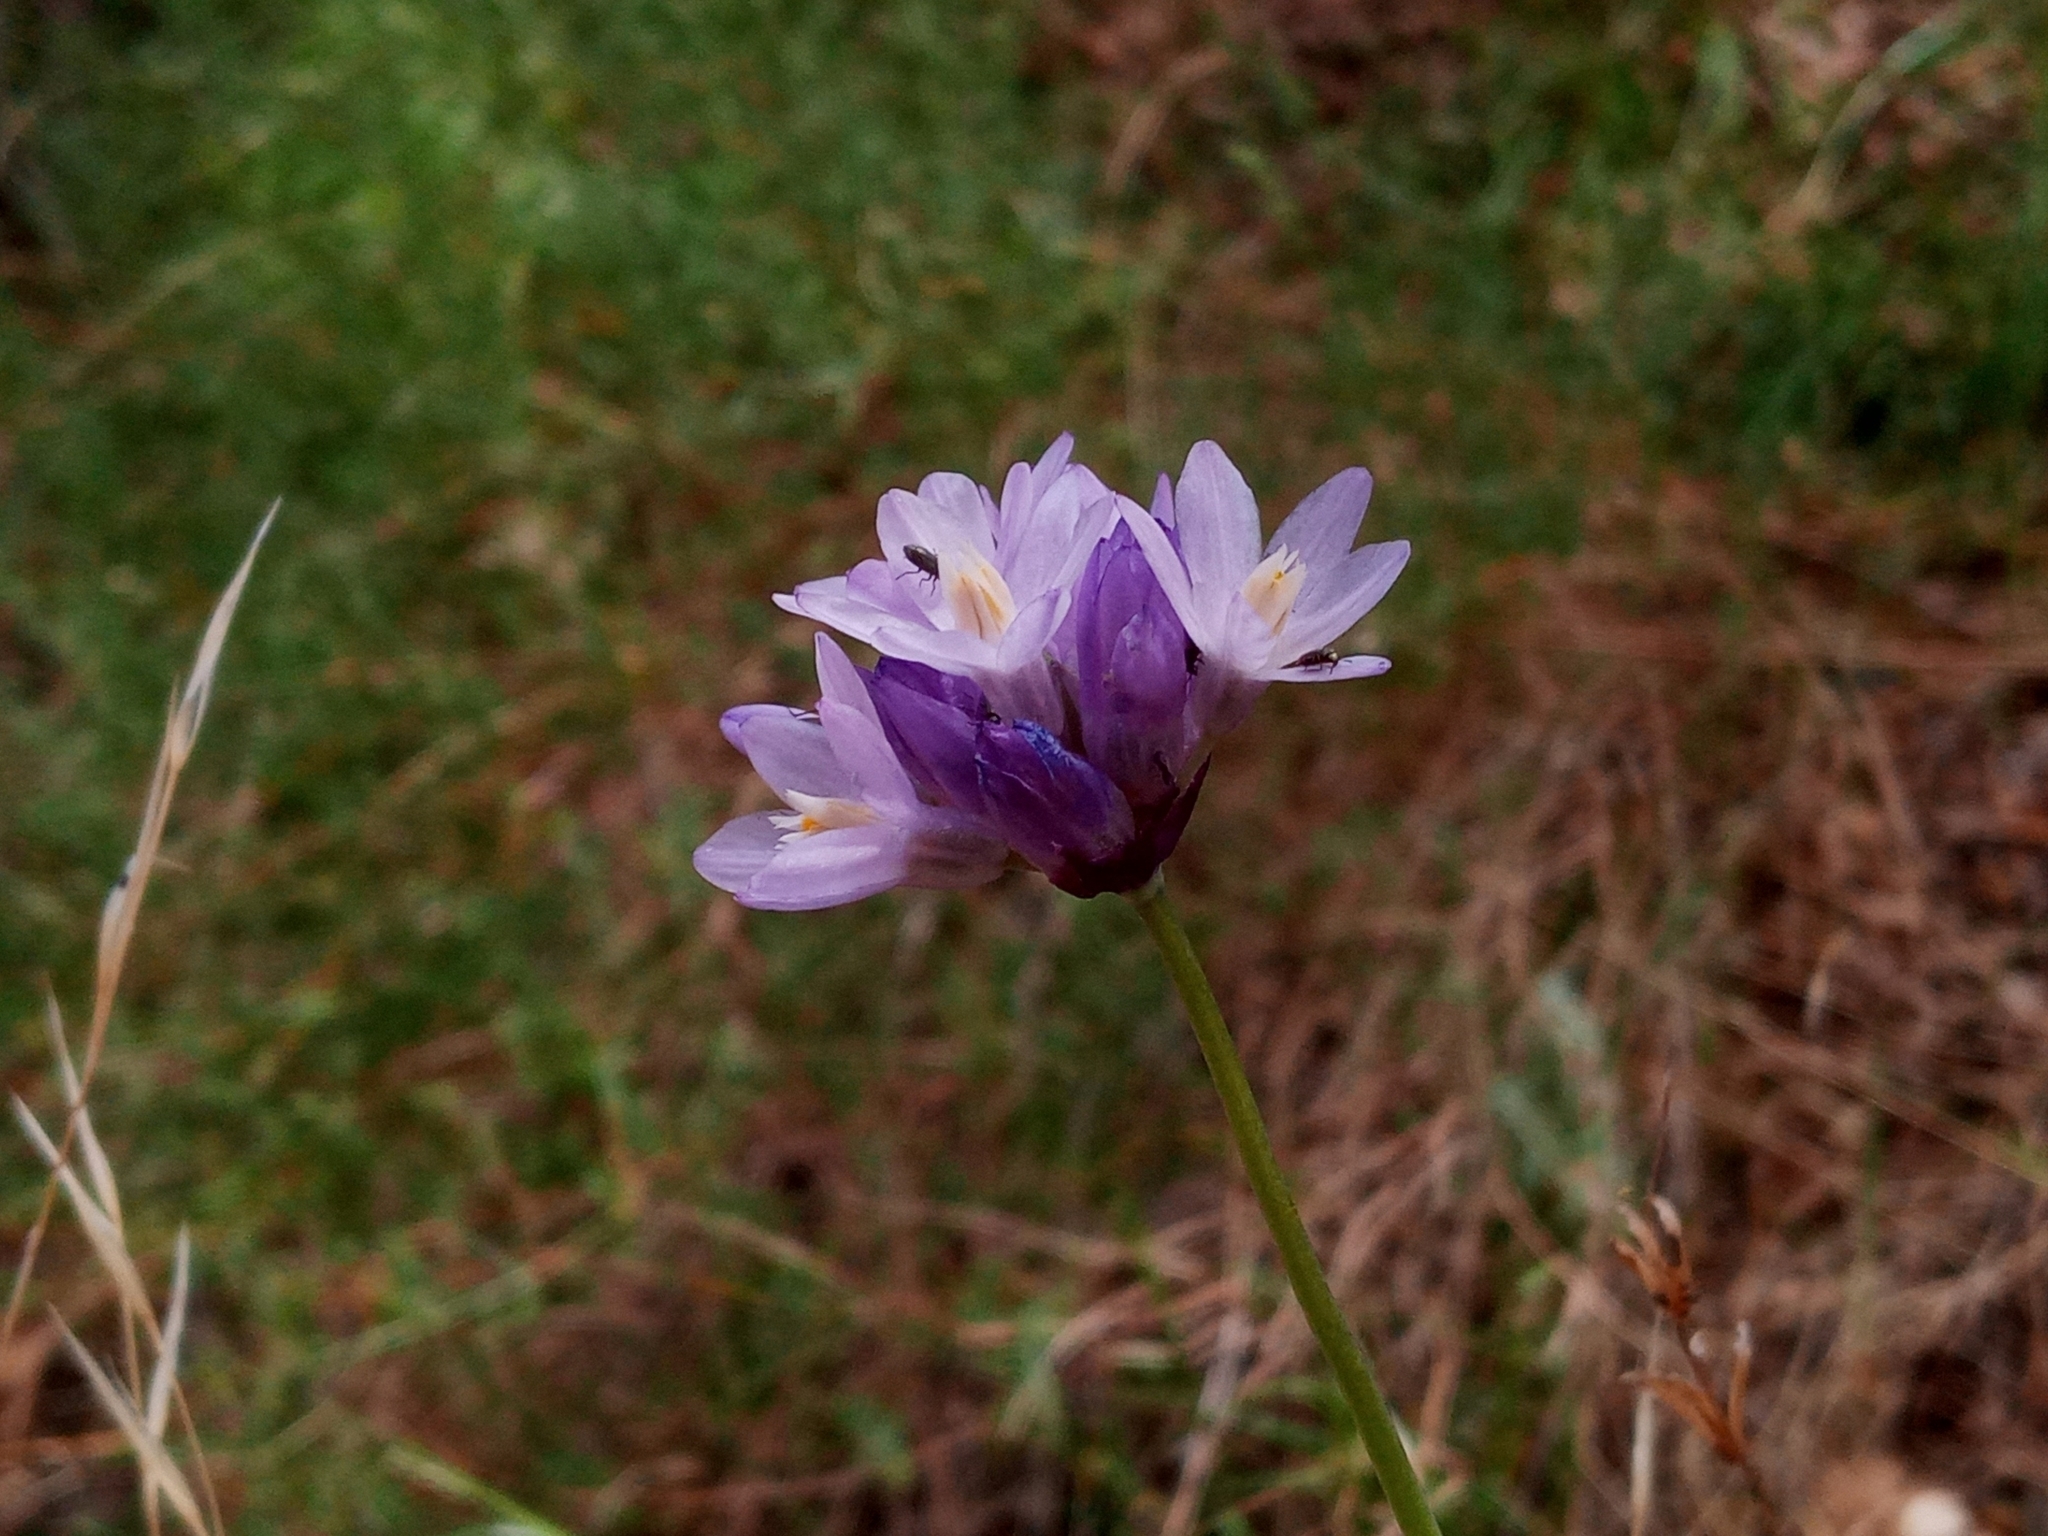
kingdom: Plantae
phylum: Tracheophyta
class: Liliopsida
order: Asparagales
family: Asparagaceae
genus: Dipterostemon
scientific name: Dipterostemon capitatus
